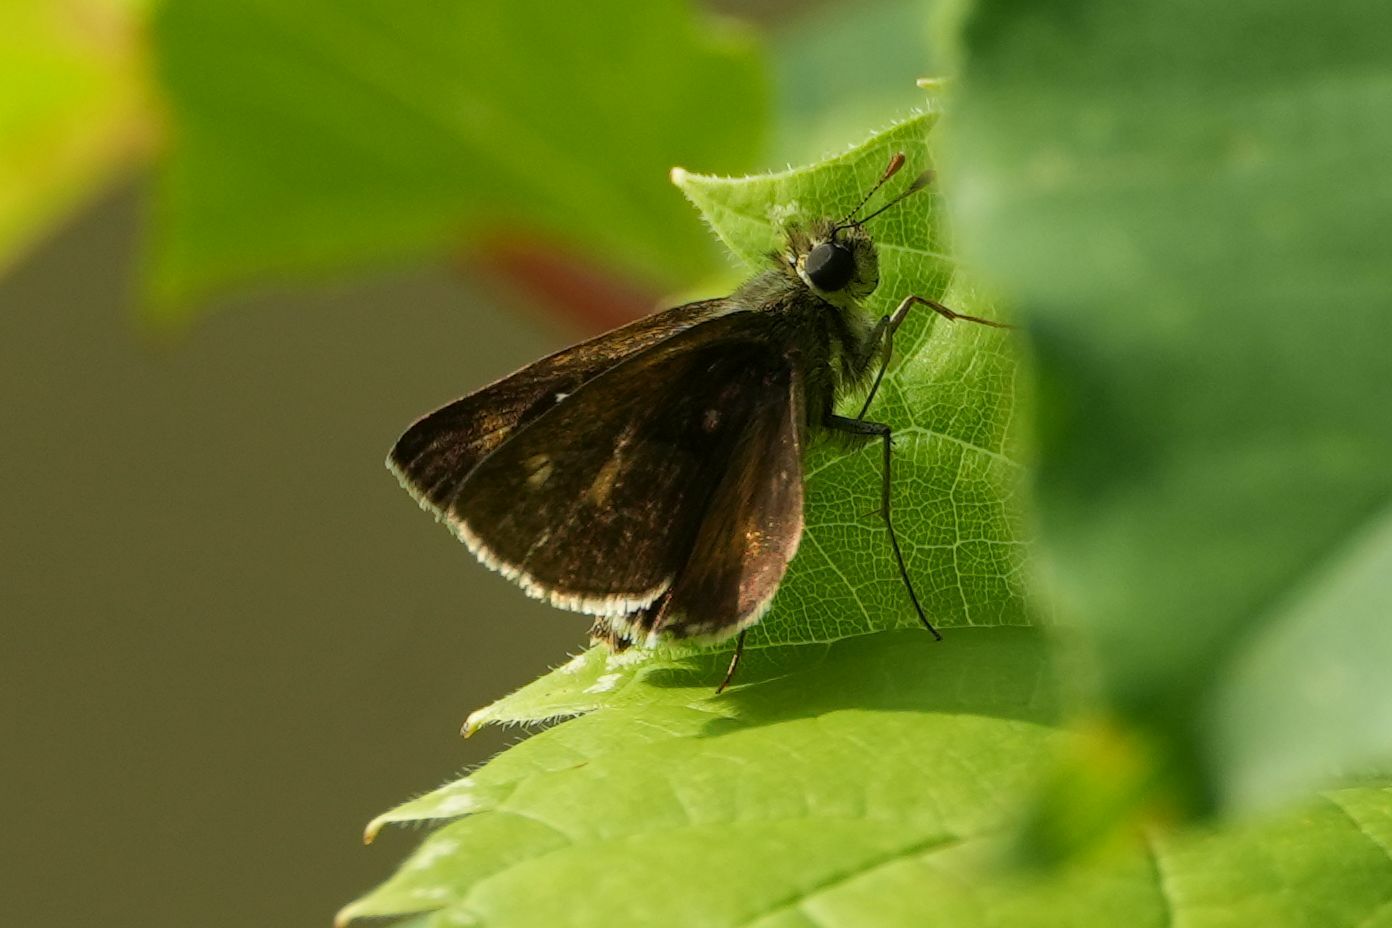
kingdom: Animalia
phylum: Arthropoda
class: Insecta
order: Lepidoptera
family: Hesperiidae
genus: Polites
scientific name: Polites egeremet
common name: Northern broken-dash
